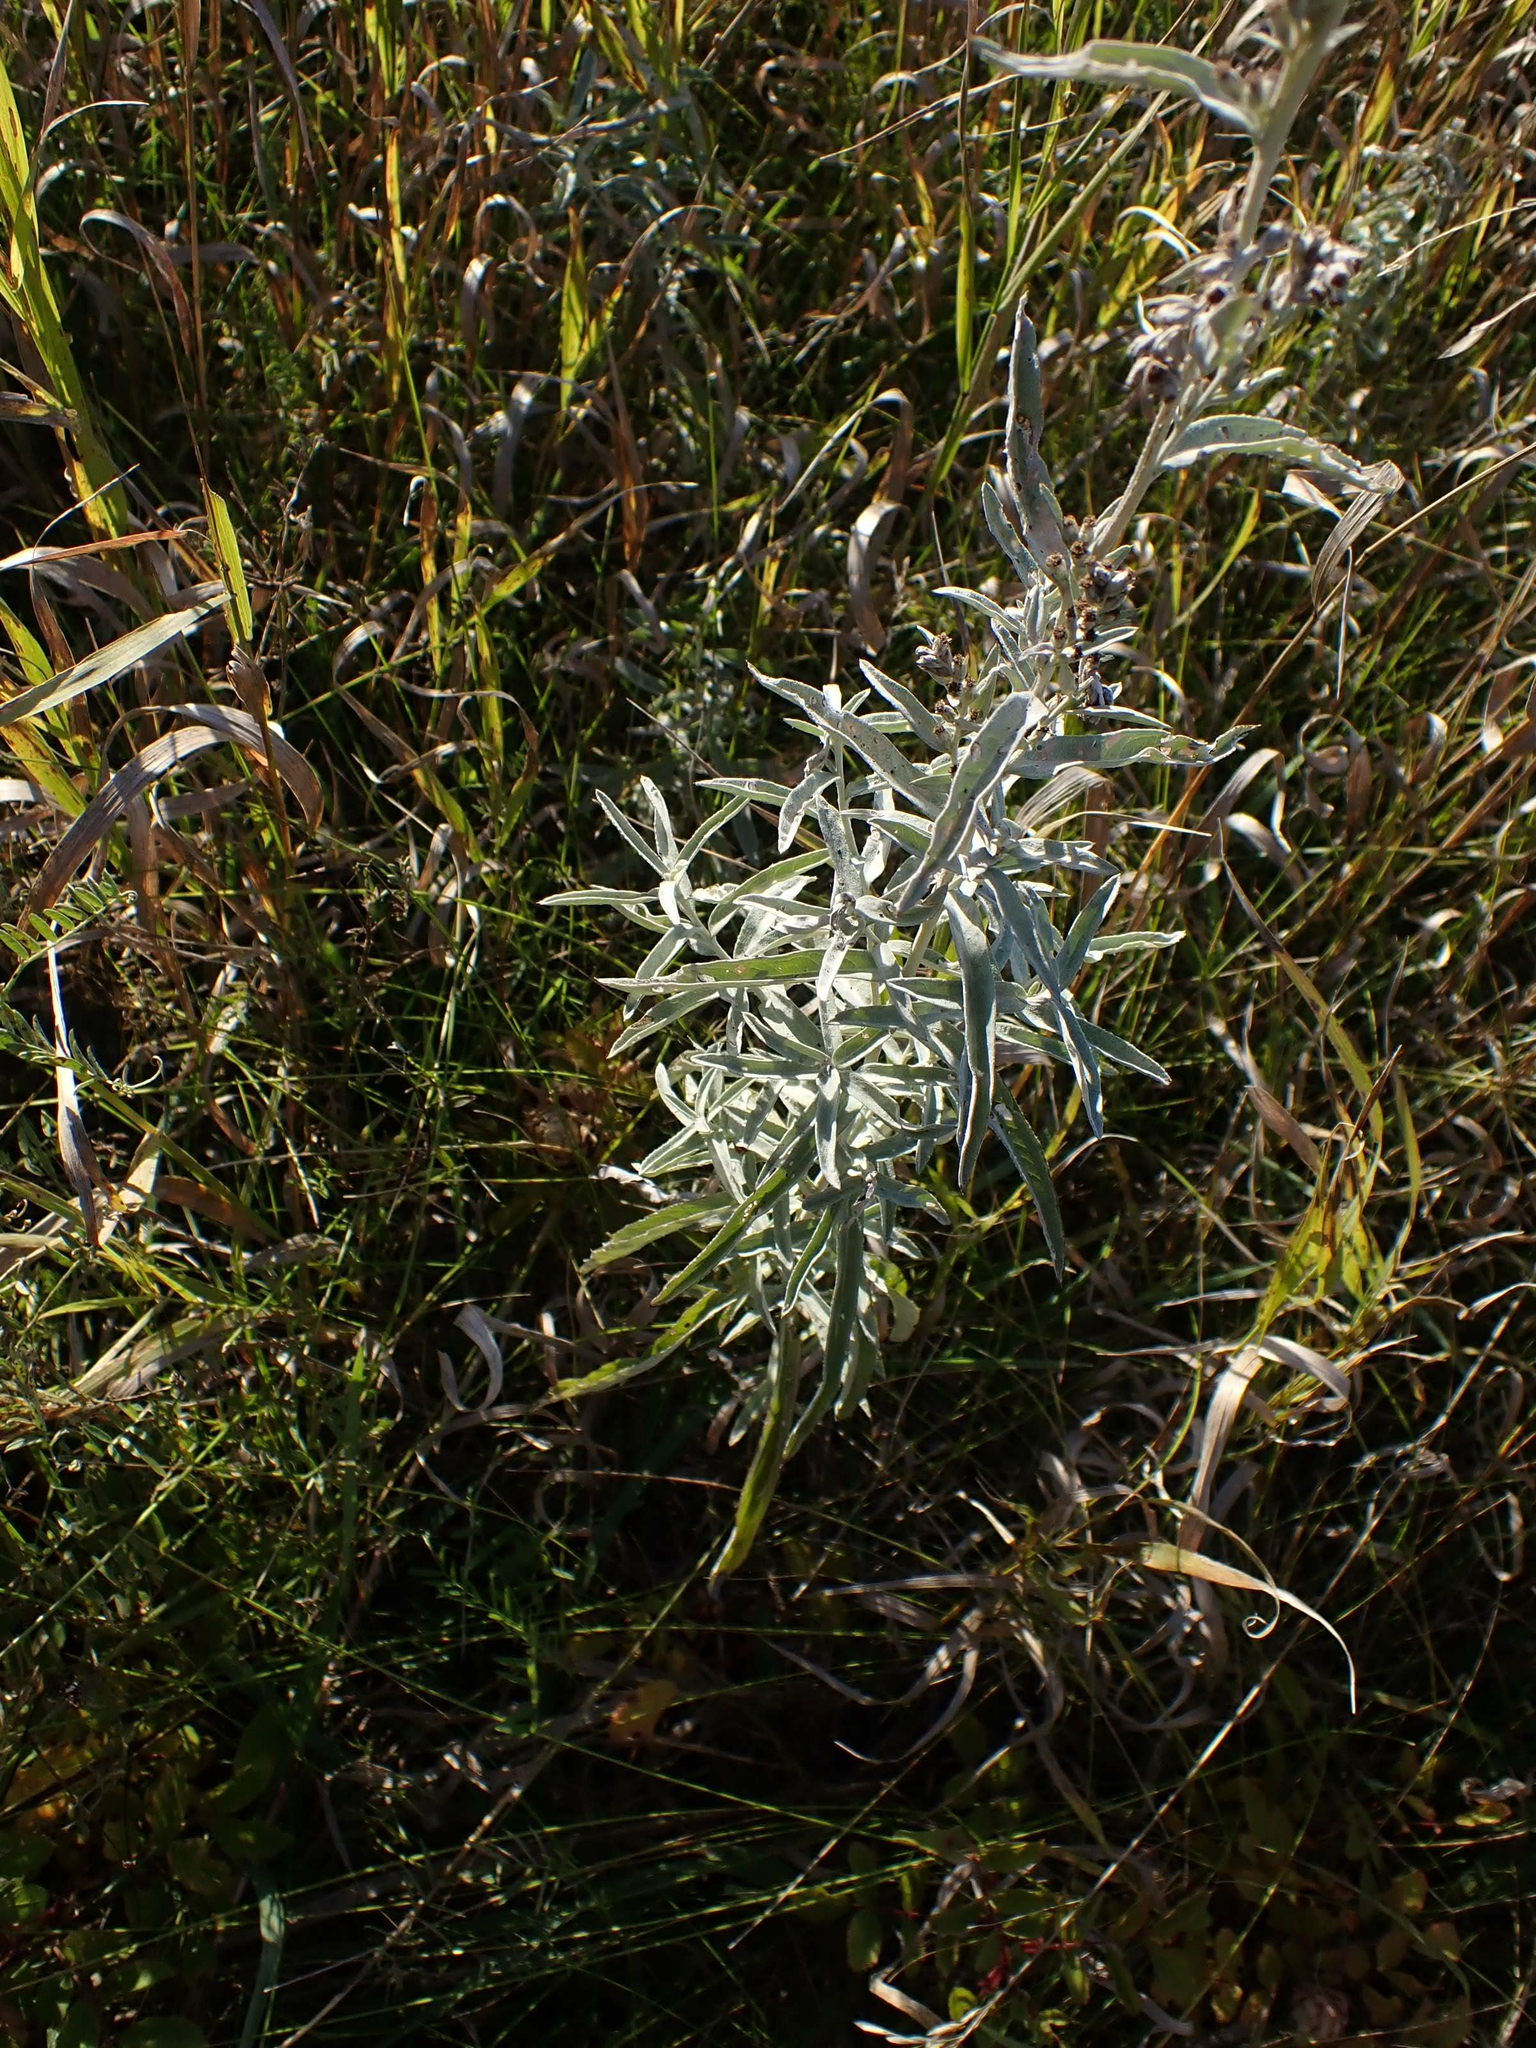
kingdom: Plantae
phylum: Tracheophyta
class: Magnoliopsida
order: Asterales
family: Asteraceae
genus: Artemisia
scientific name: Artemisia ludoviciana
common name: Western mugwort
